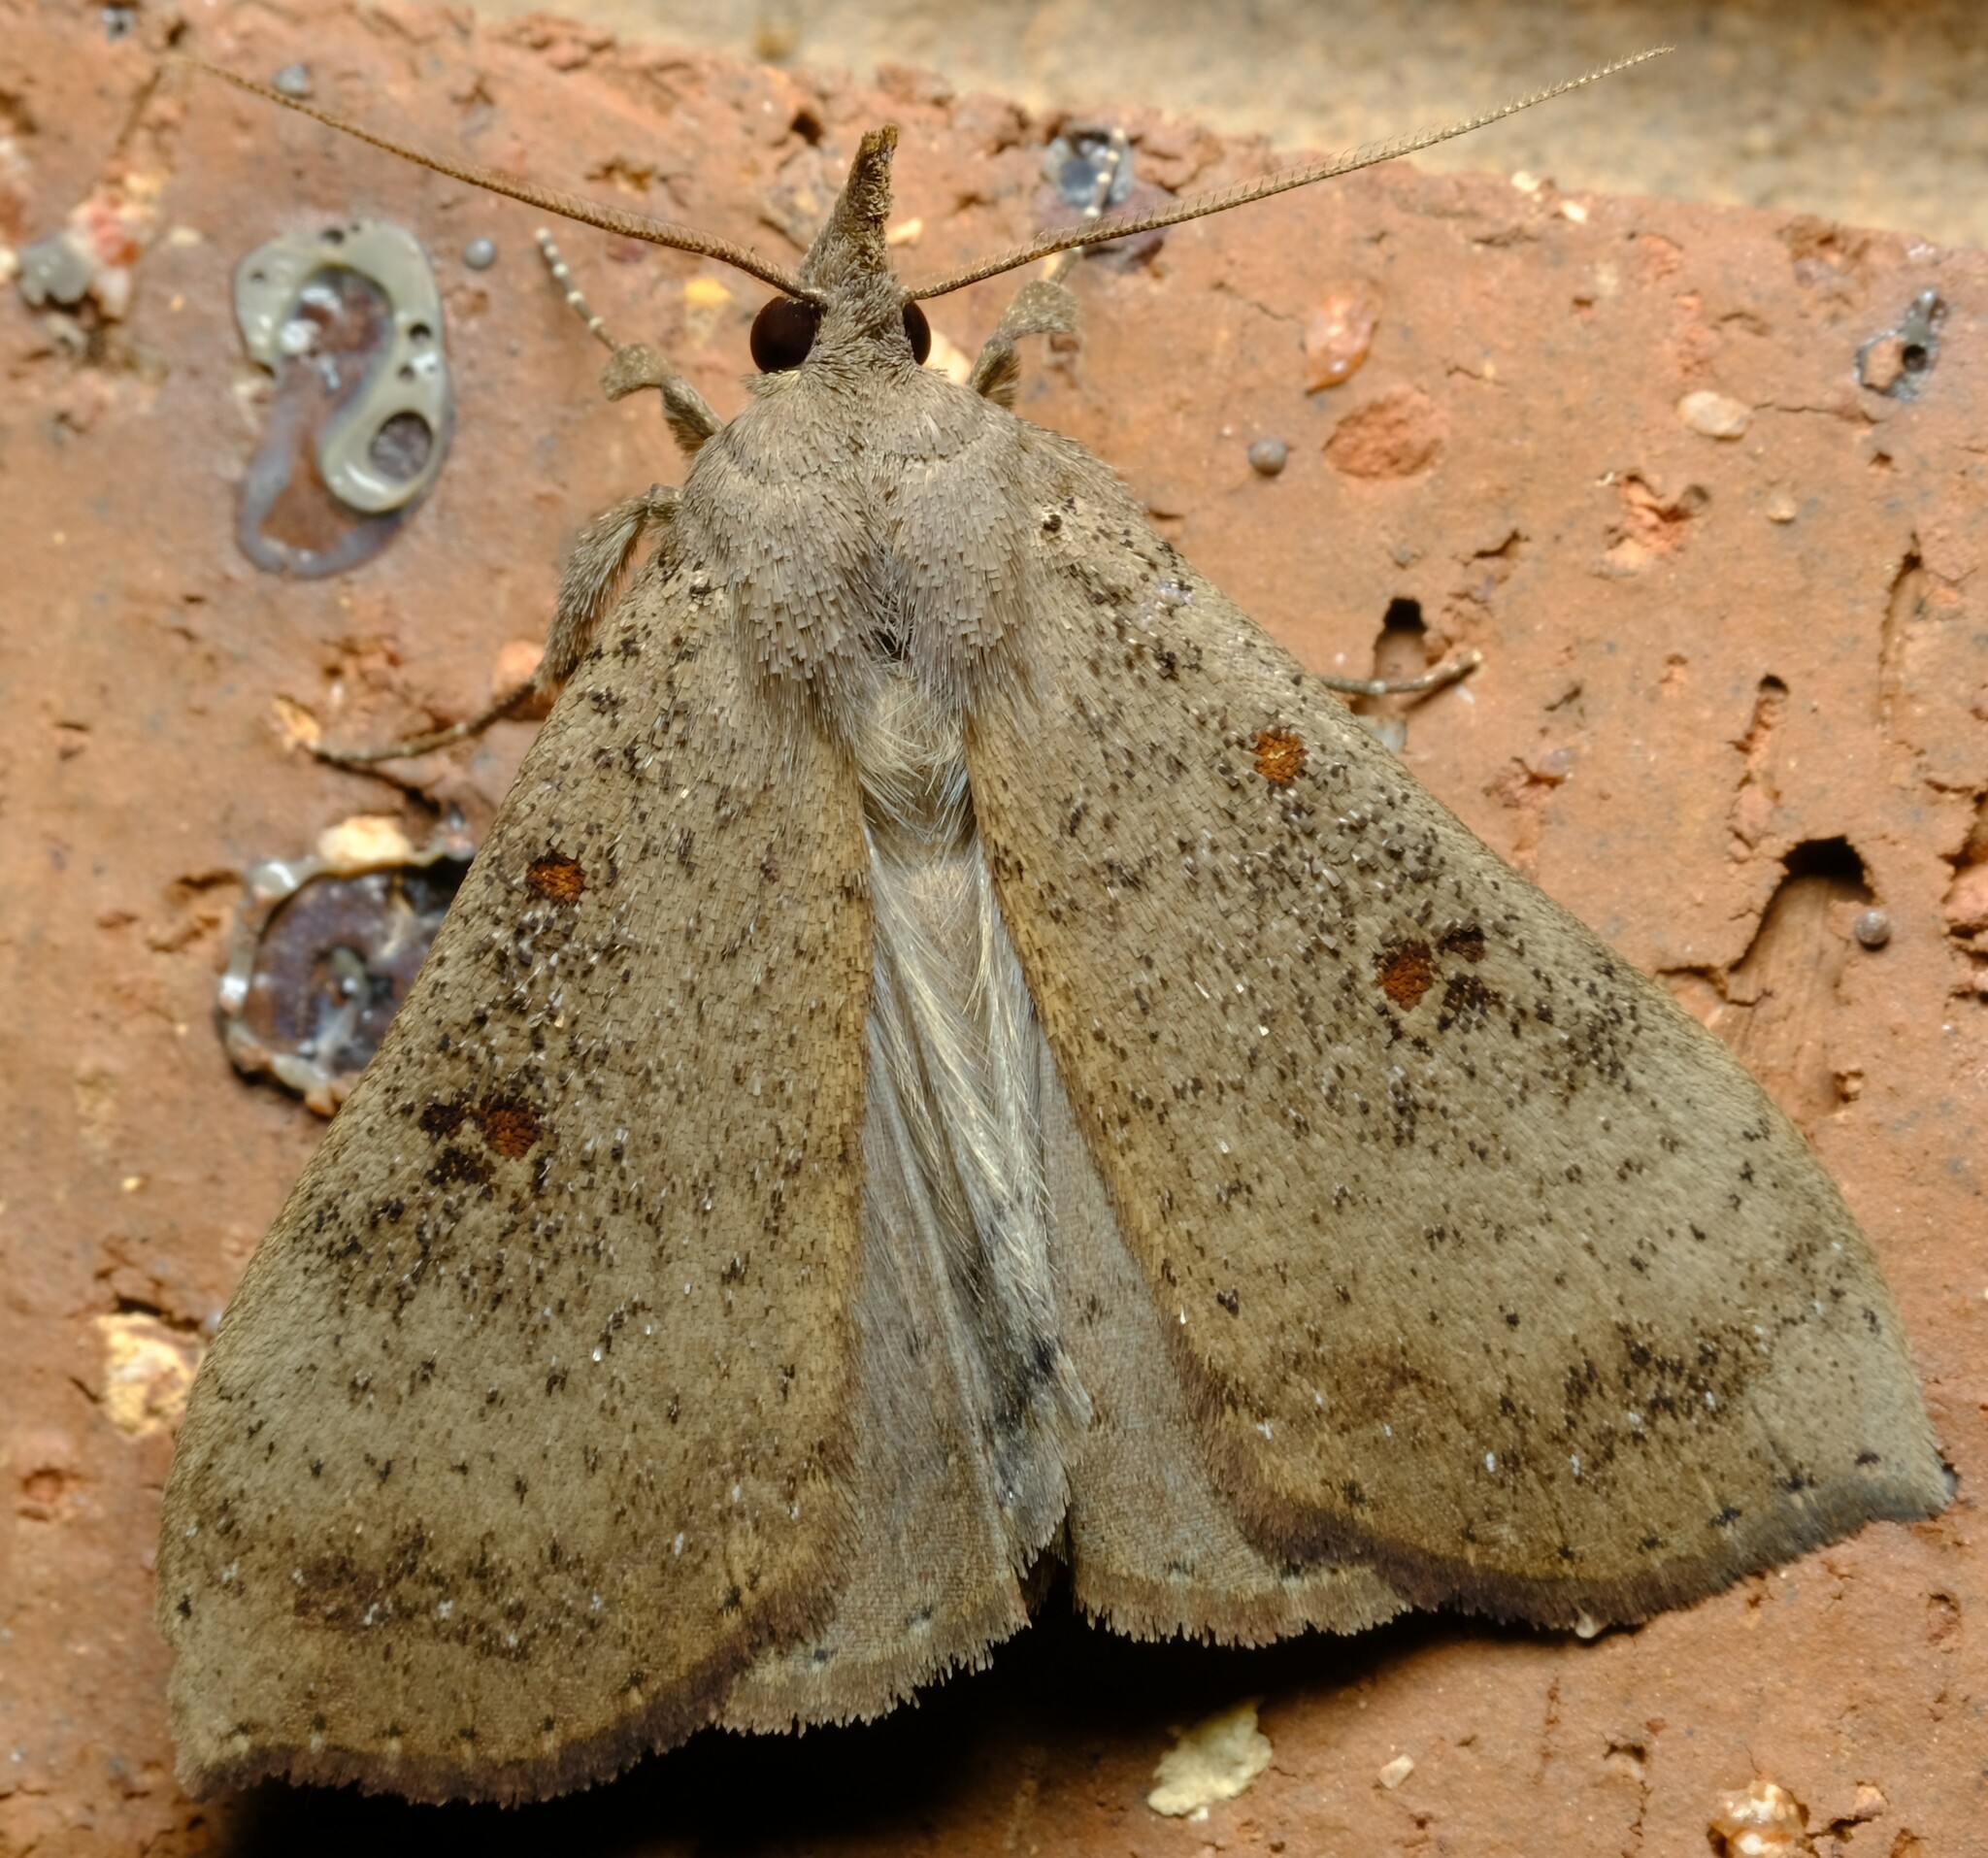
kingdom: Animalia
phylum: Arthropoda
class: Insecta
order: Lepidoptera
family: Erebidae
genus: Rhapsa
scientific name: Rhapsa suscitatalis
